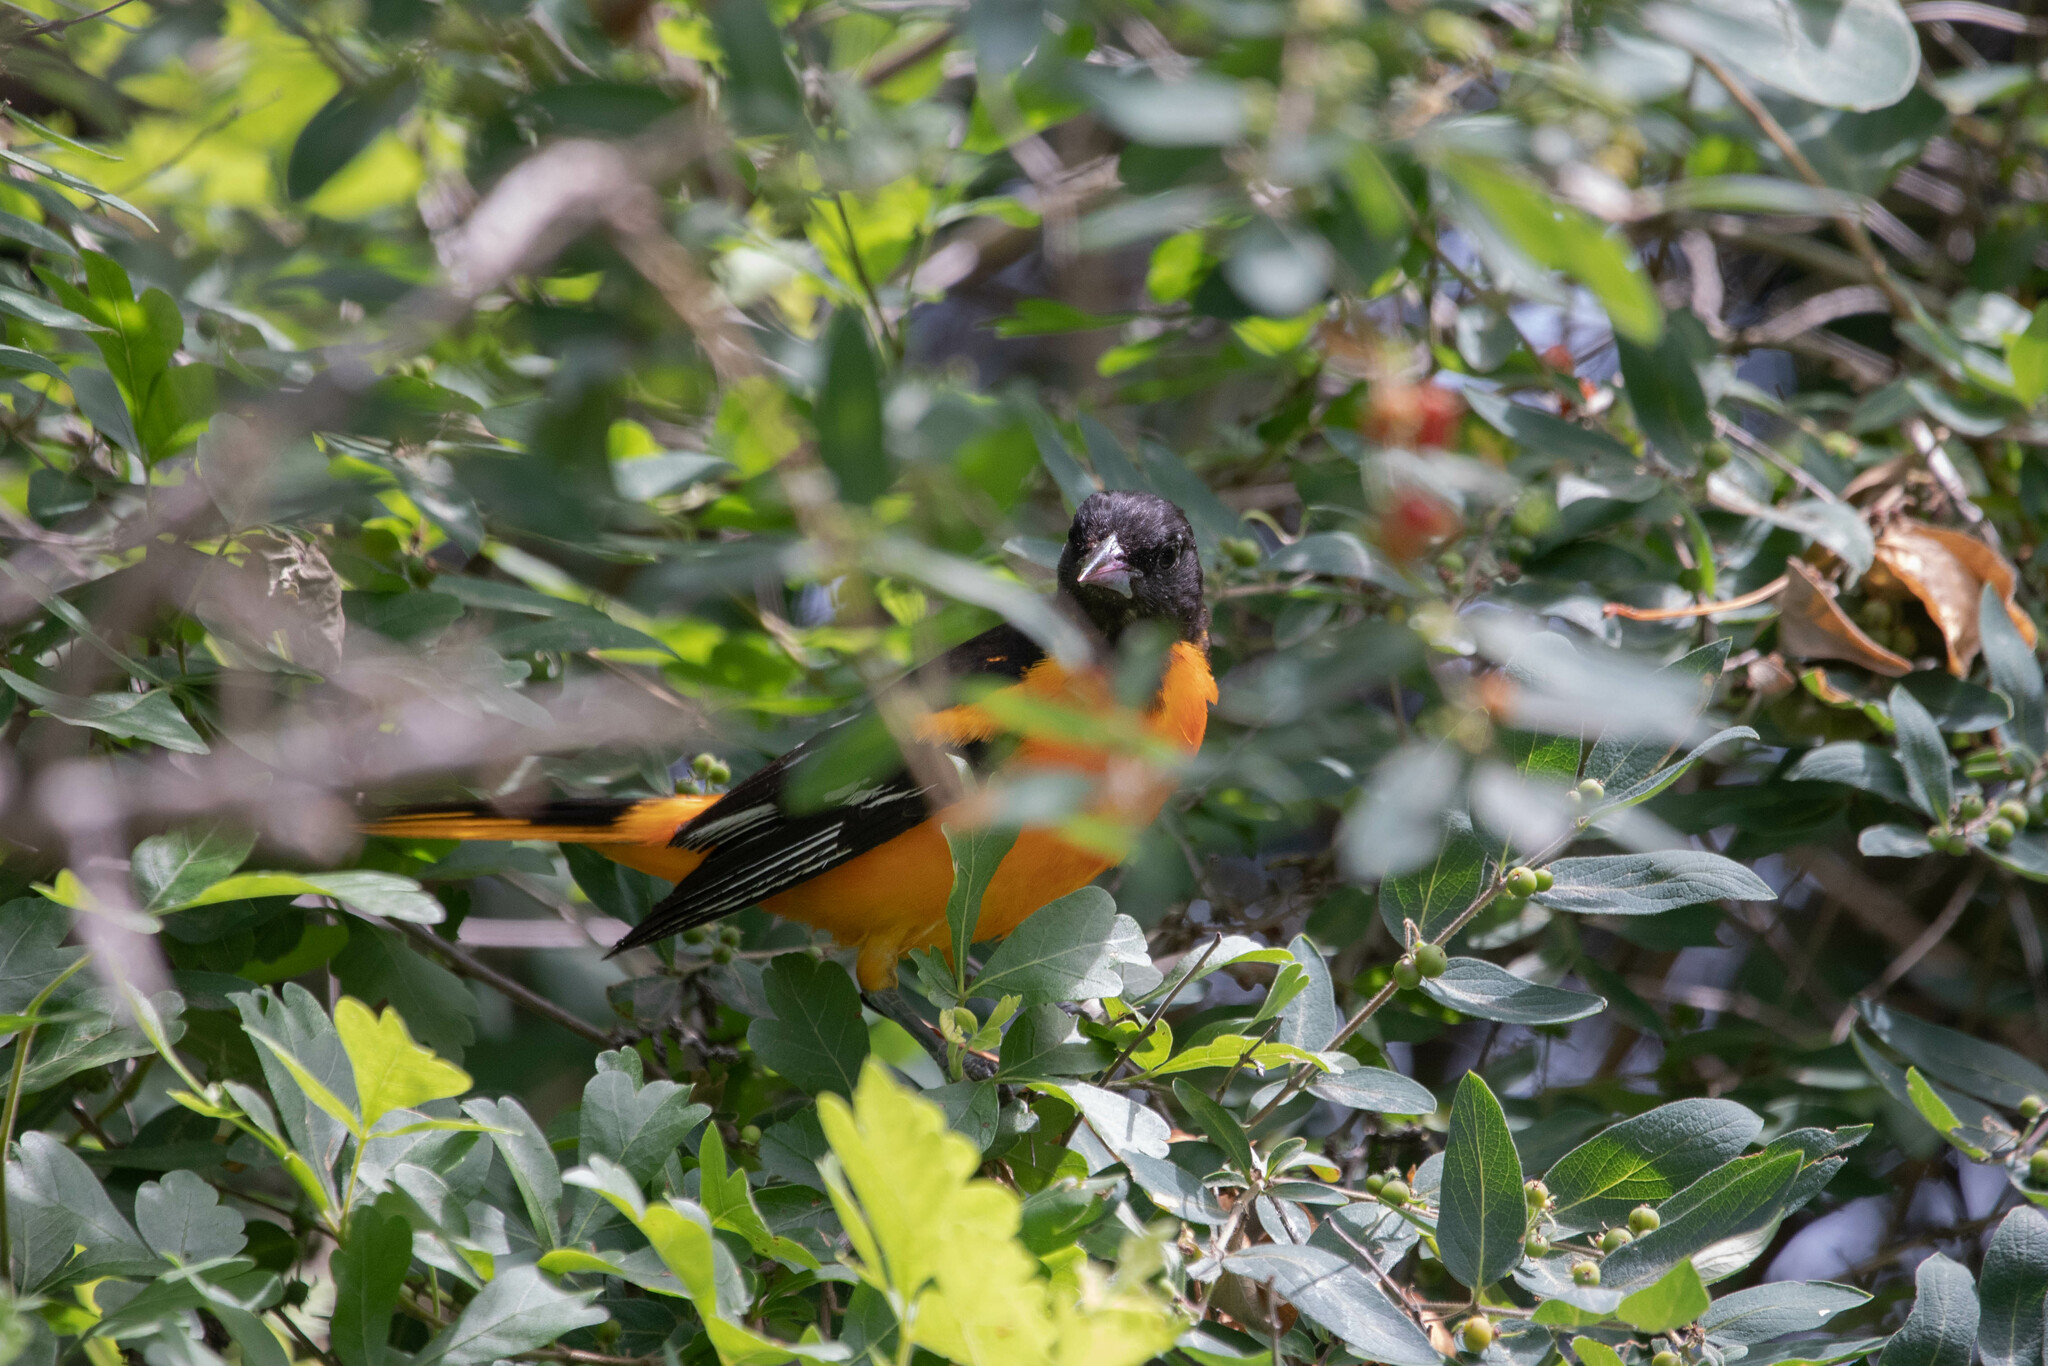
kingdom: Animalia
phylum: Chordata
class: Aves
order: Passeriformes
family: Icteridae
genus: Icterus
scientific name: Icterus galbula
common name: Baltimore oriole
